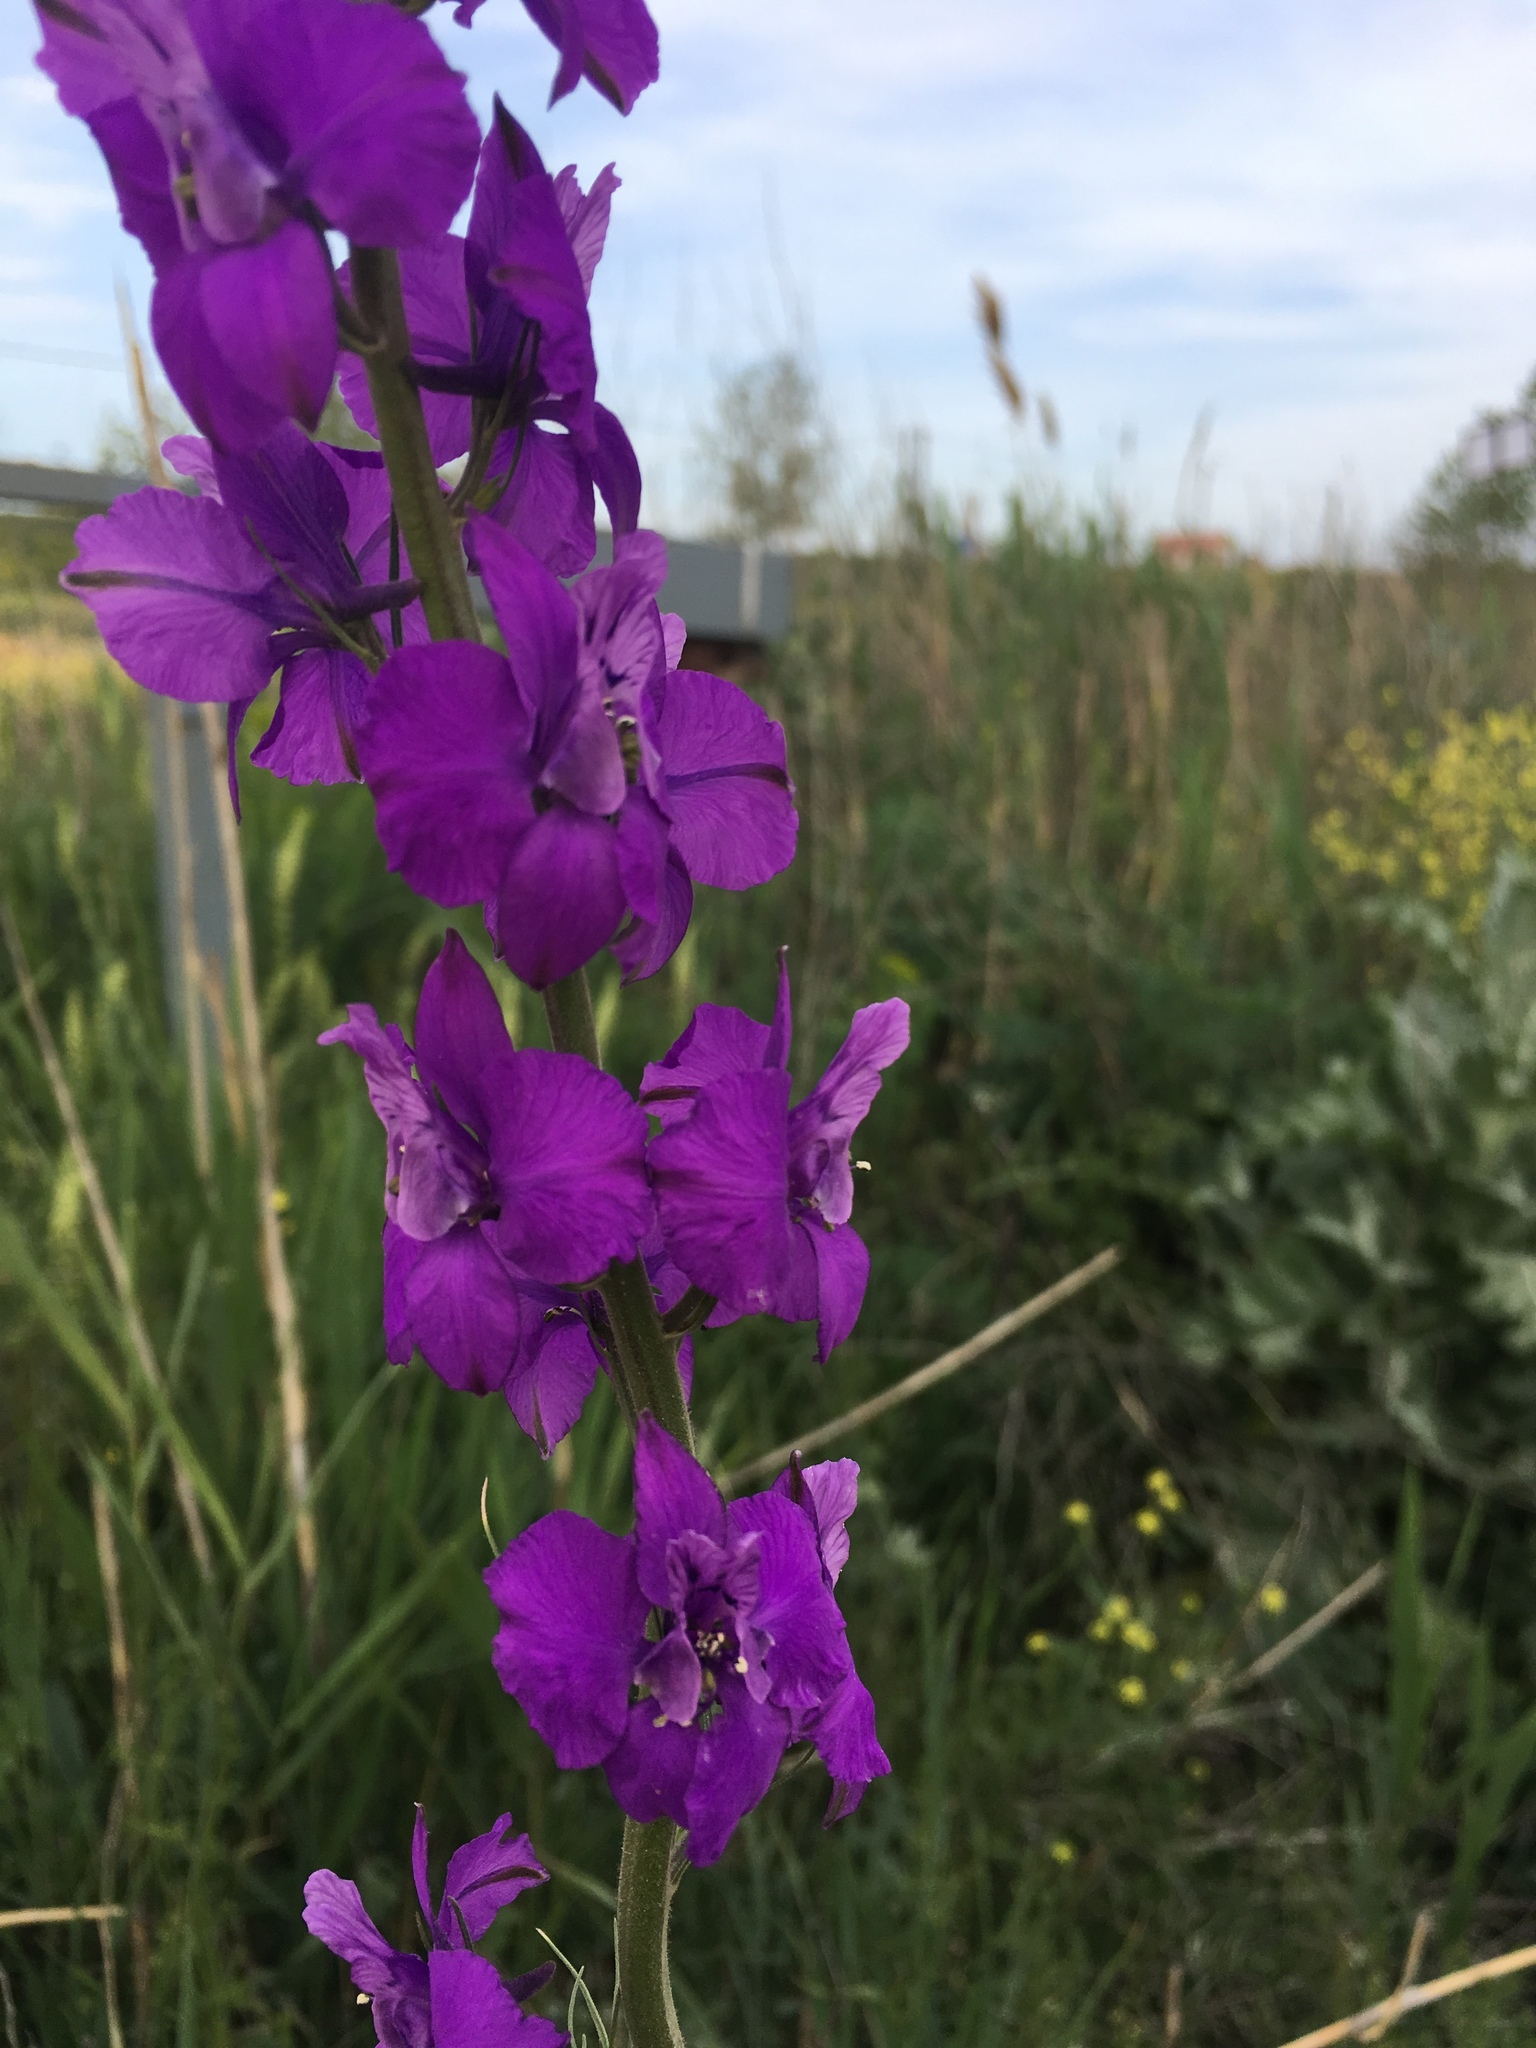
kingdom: Plantae
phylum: Tracheophyta
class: Magnoliopsida
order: Lamiales
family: Scrophulariaceae
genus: Verbascum
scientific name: Verbascum phoeniceum
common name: Purple mullein
